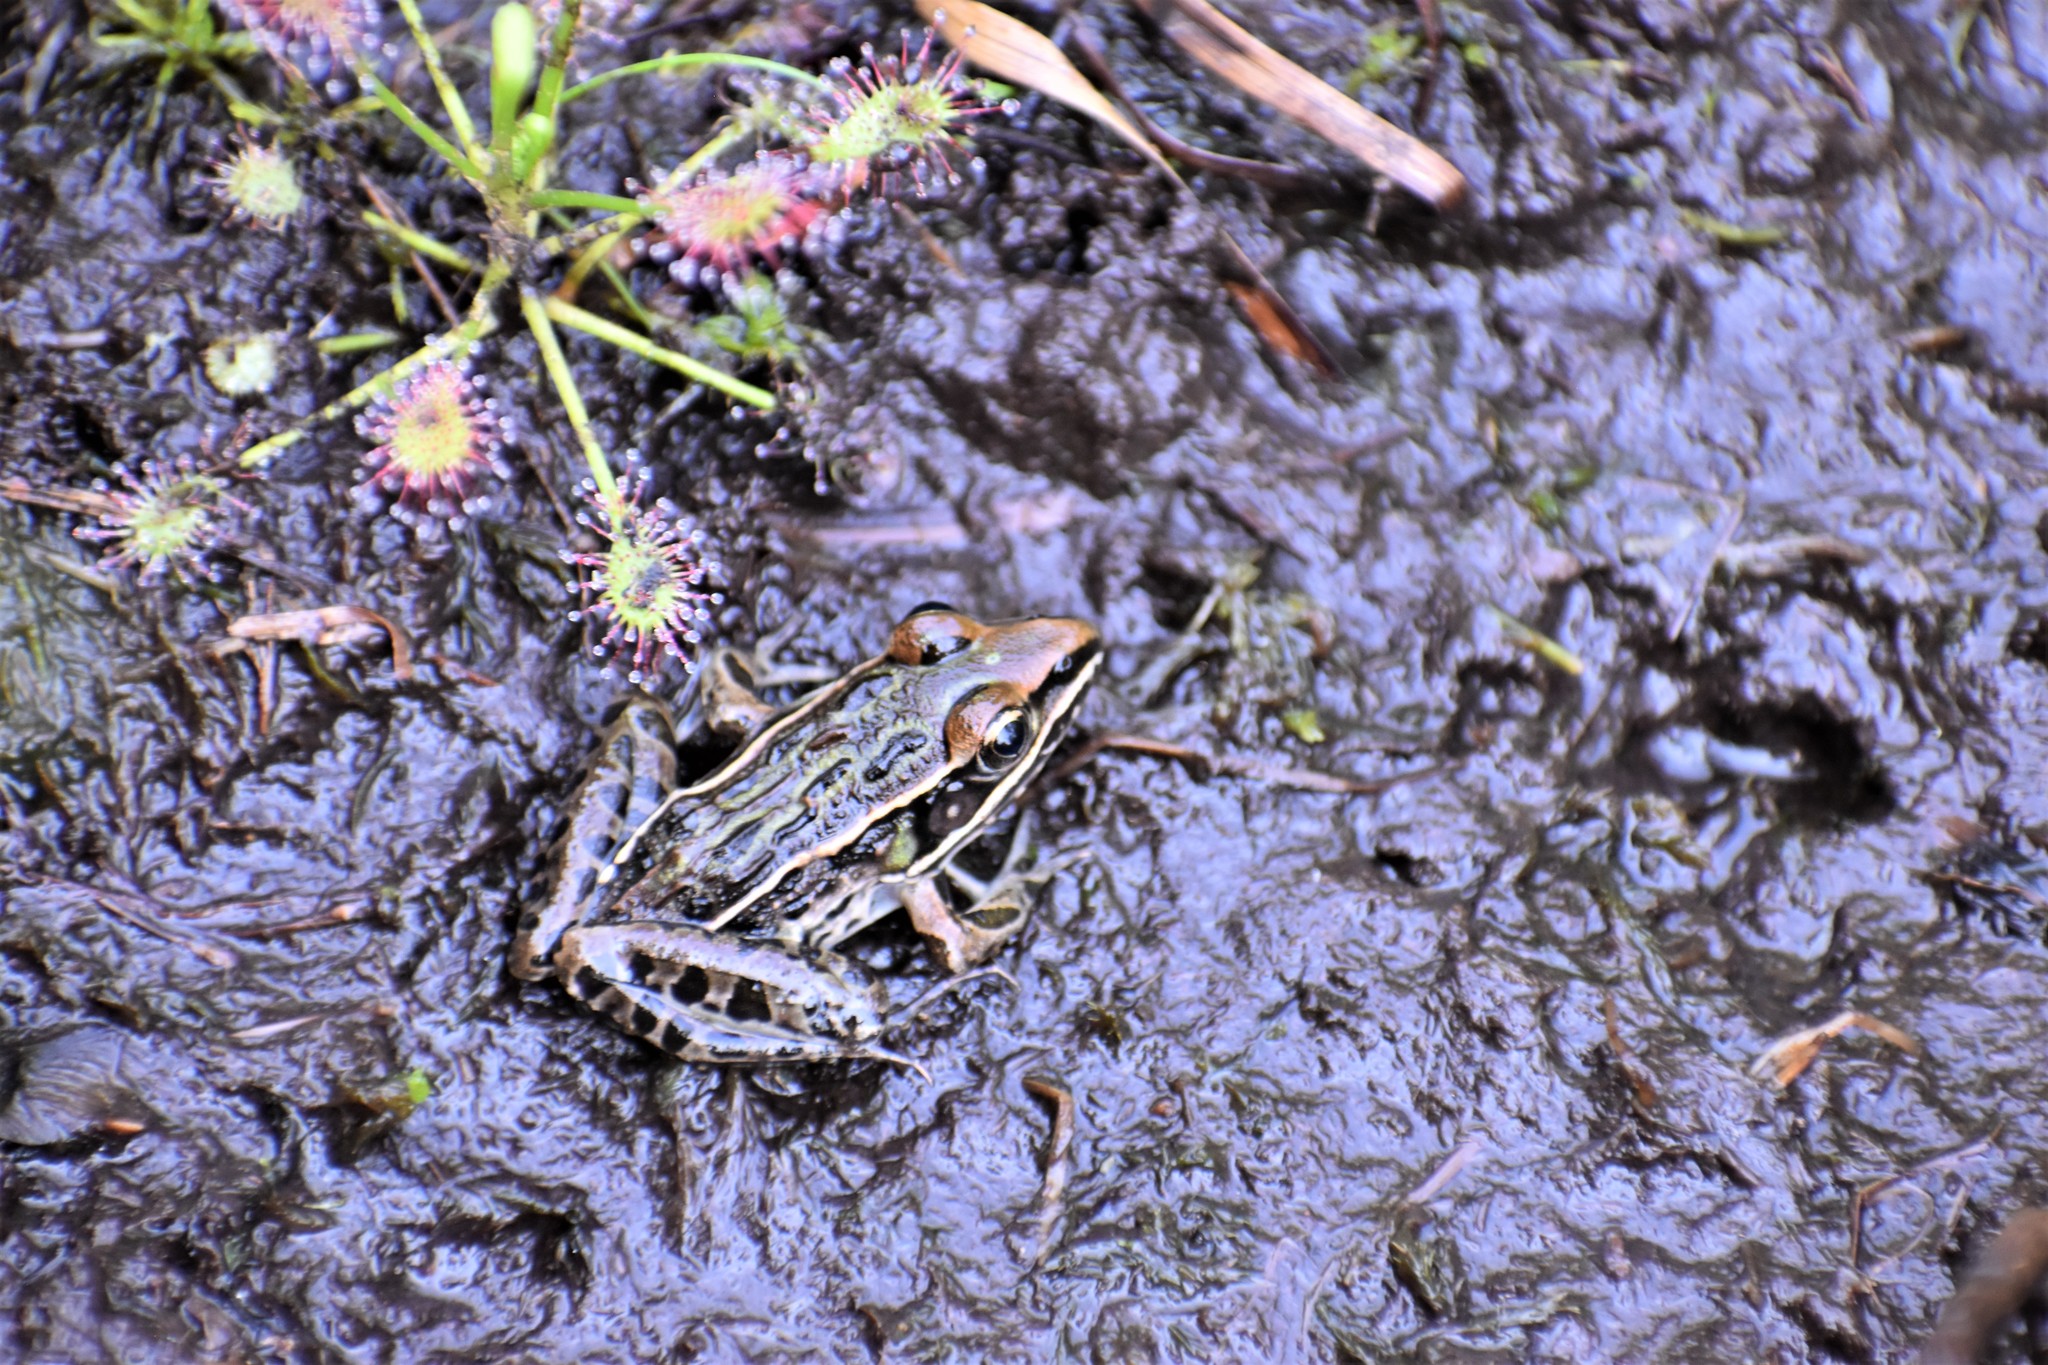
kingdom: Animalia
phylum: Chordata
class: Amphibia
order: Anura
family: Ranidae
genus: Lithobates
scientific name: Lithobates sphenocephalus
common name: Southern leopard frog
